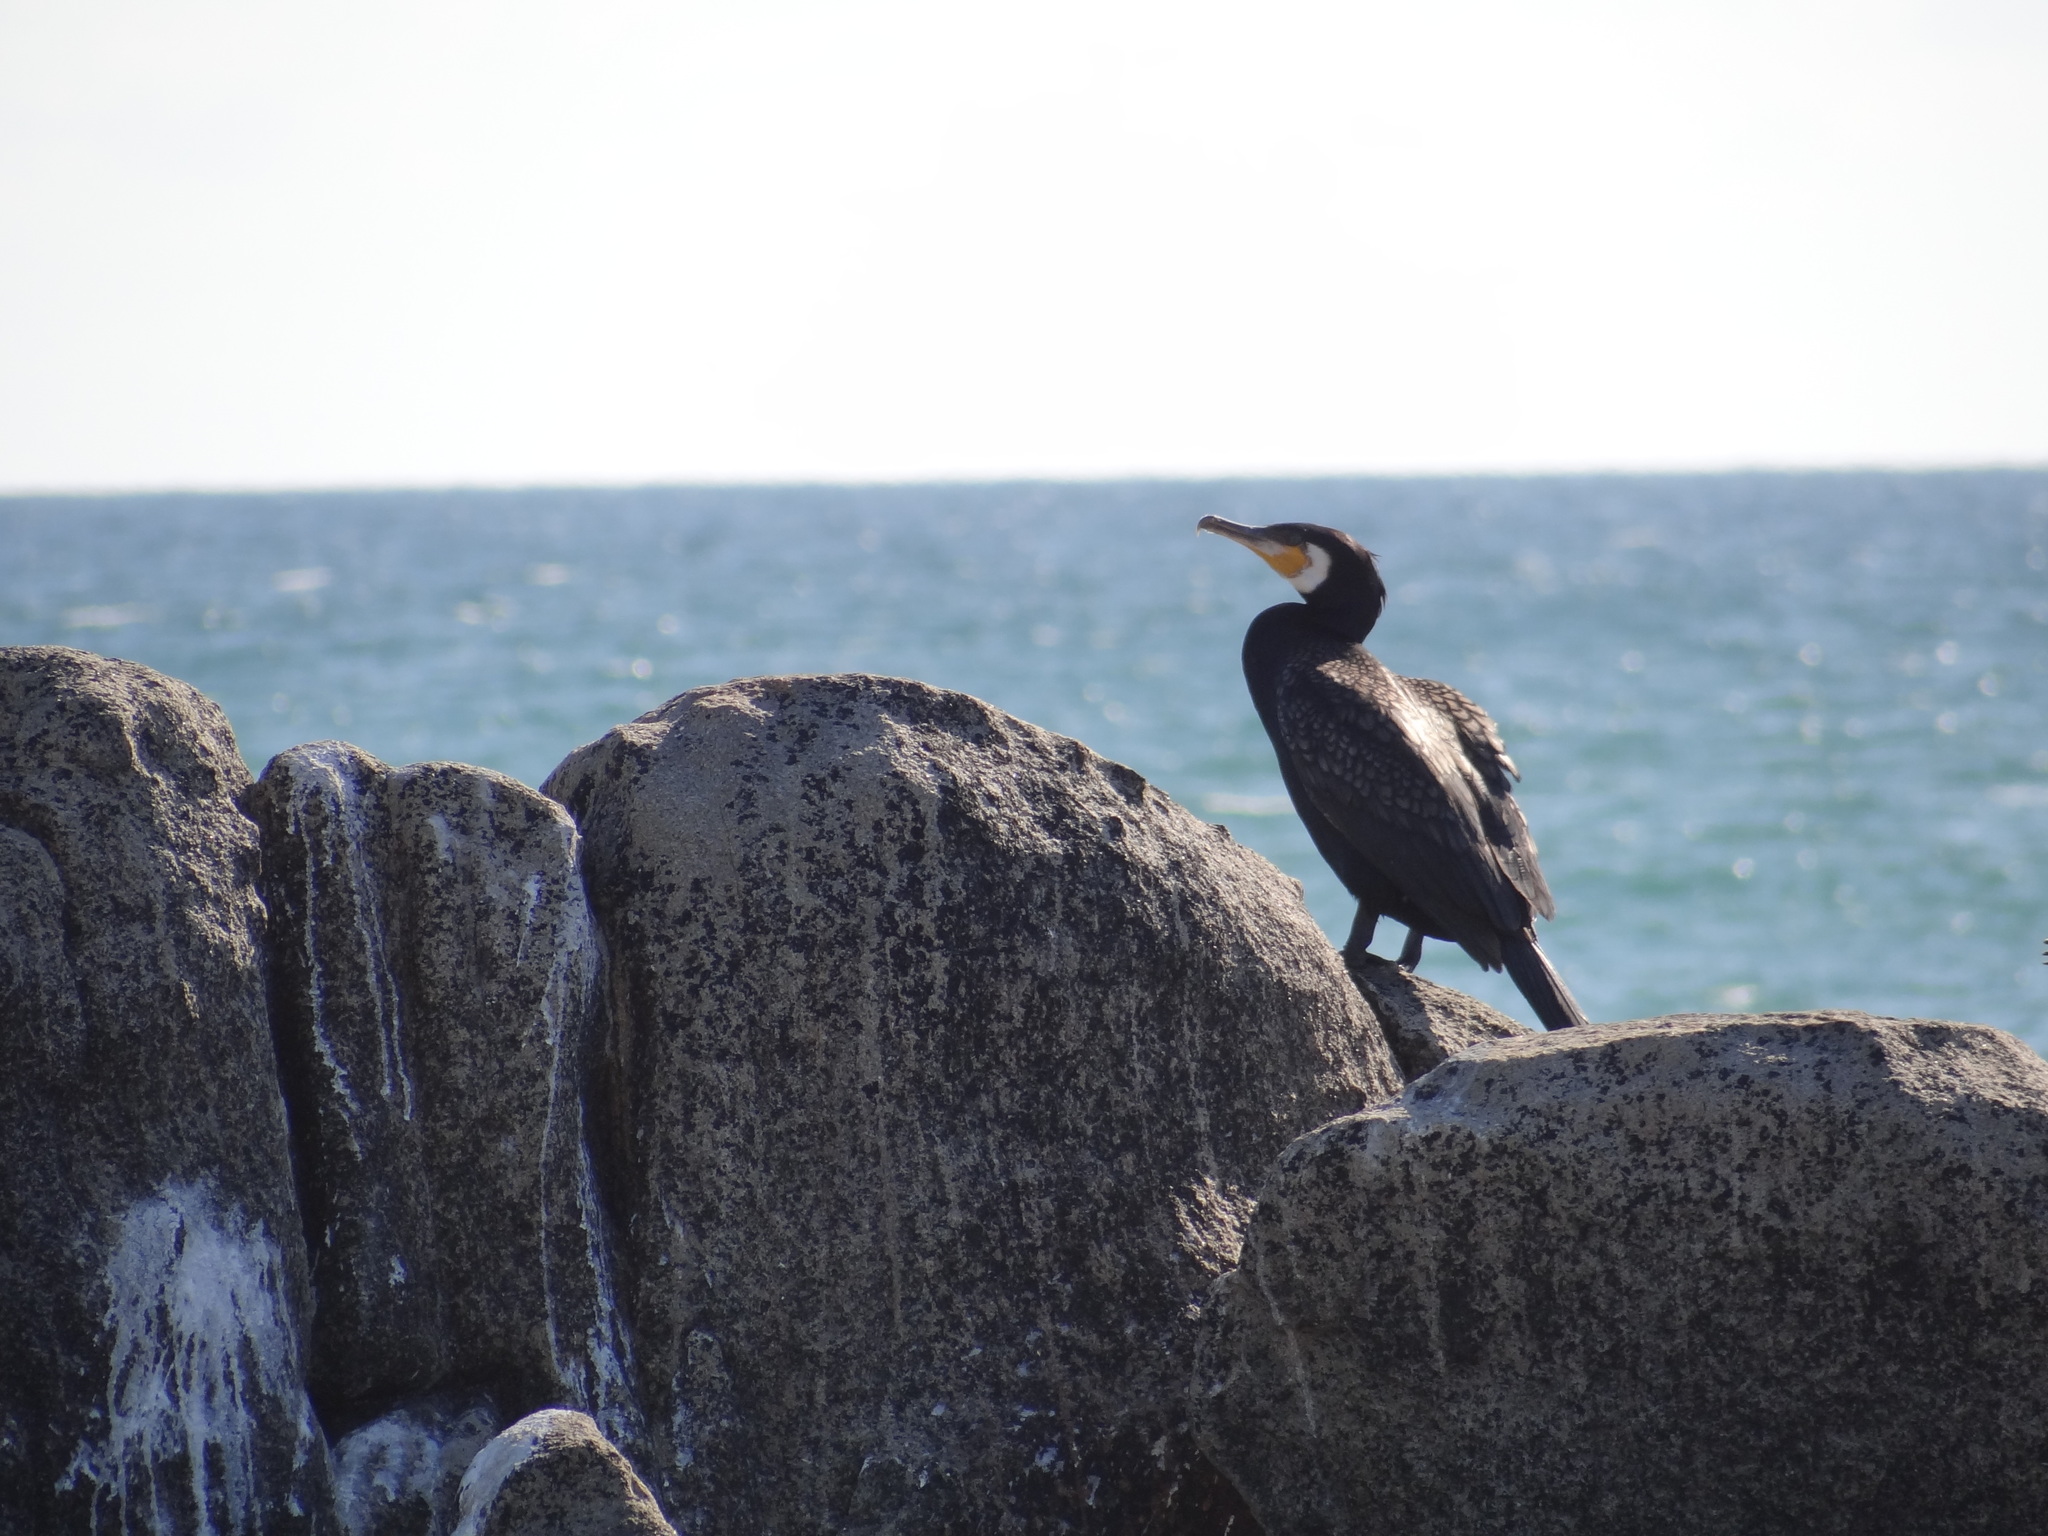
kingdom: Animalia
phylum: Chordata
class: Aves
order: Suliformes
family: Phalacrocoracidae
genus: Phalacrocorax
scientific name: Phalacrocorax carbo
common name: Great cormorant
